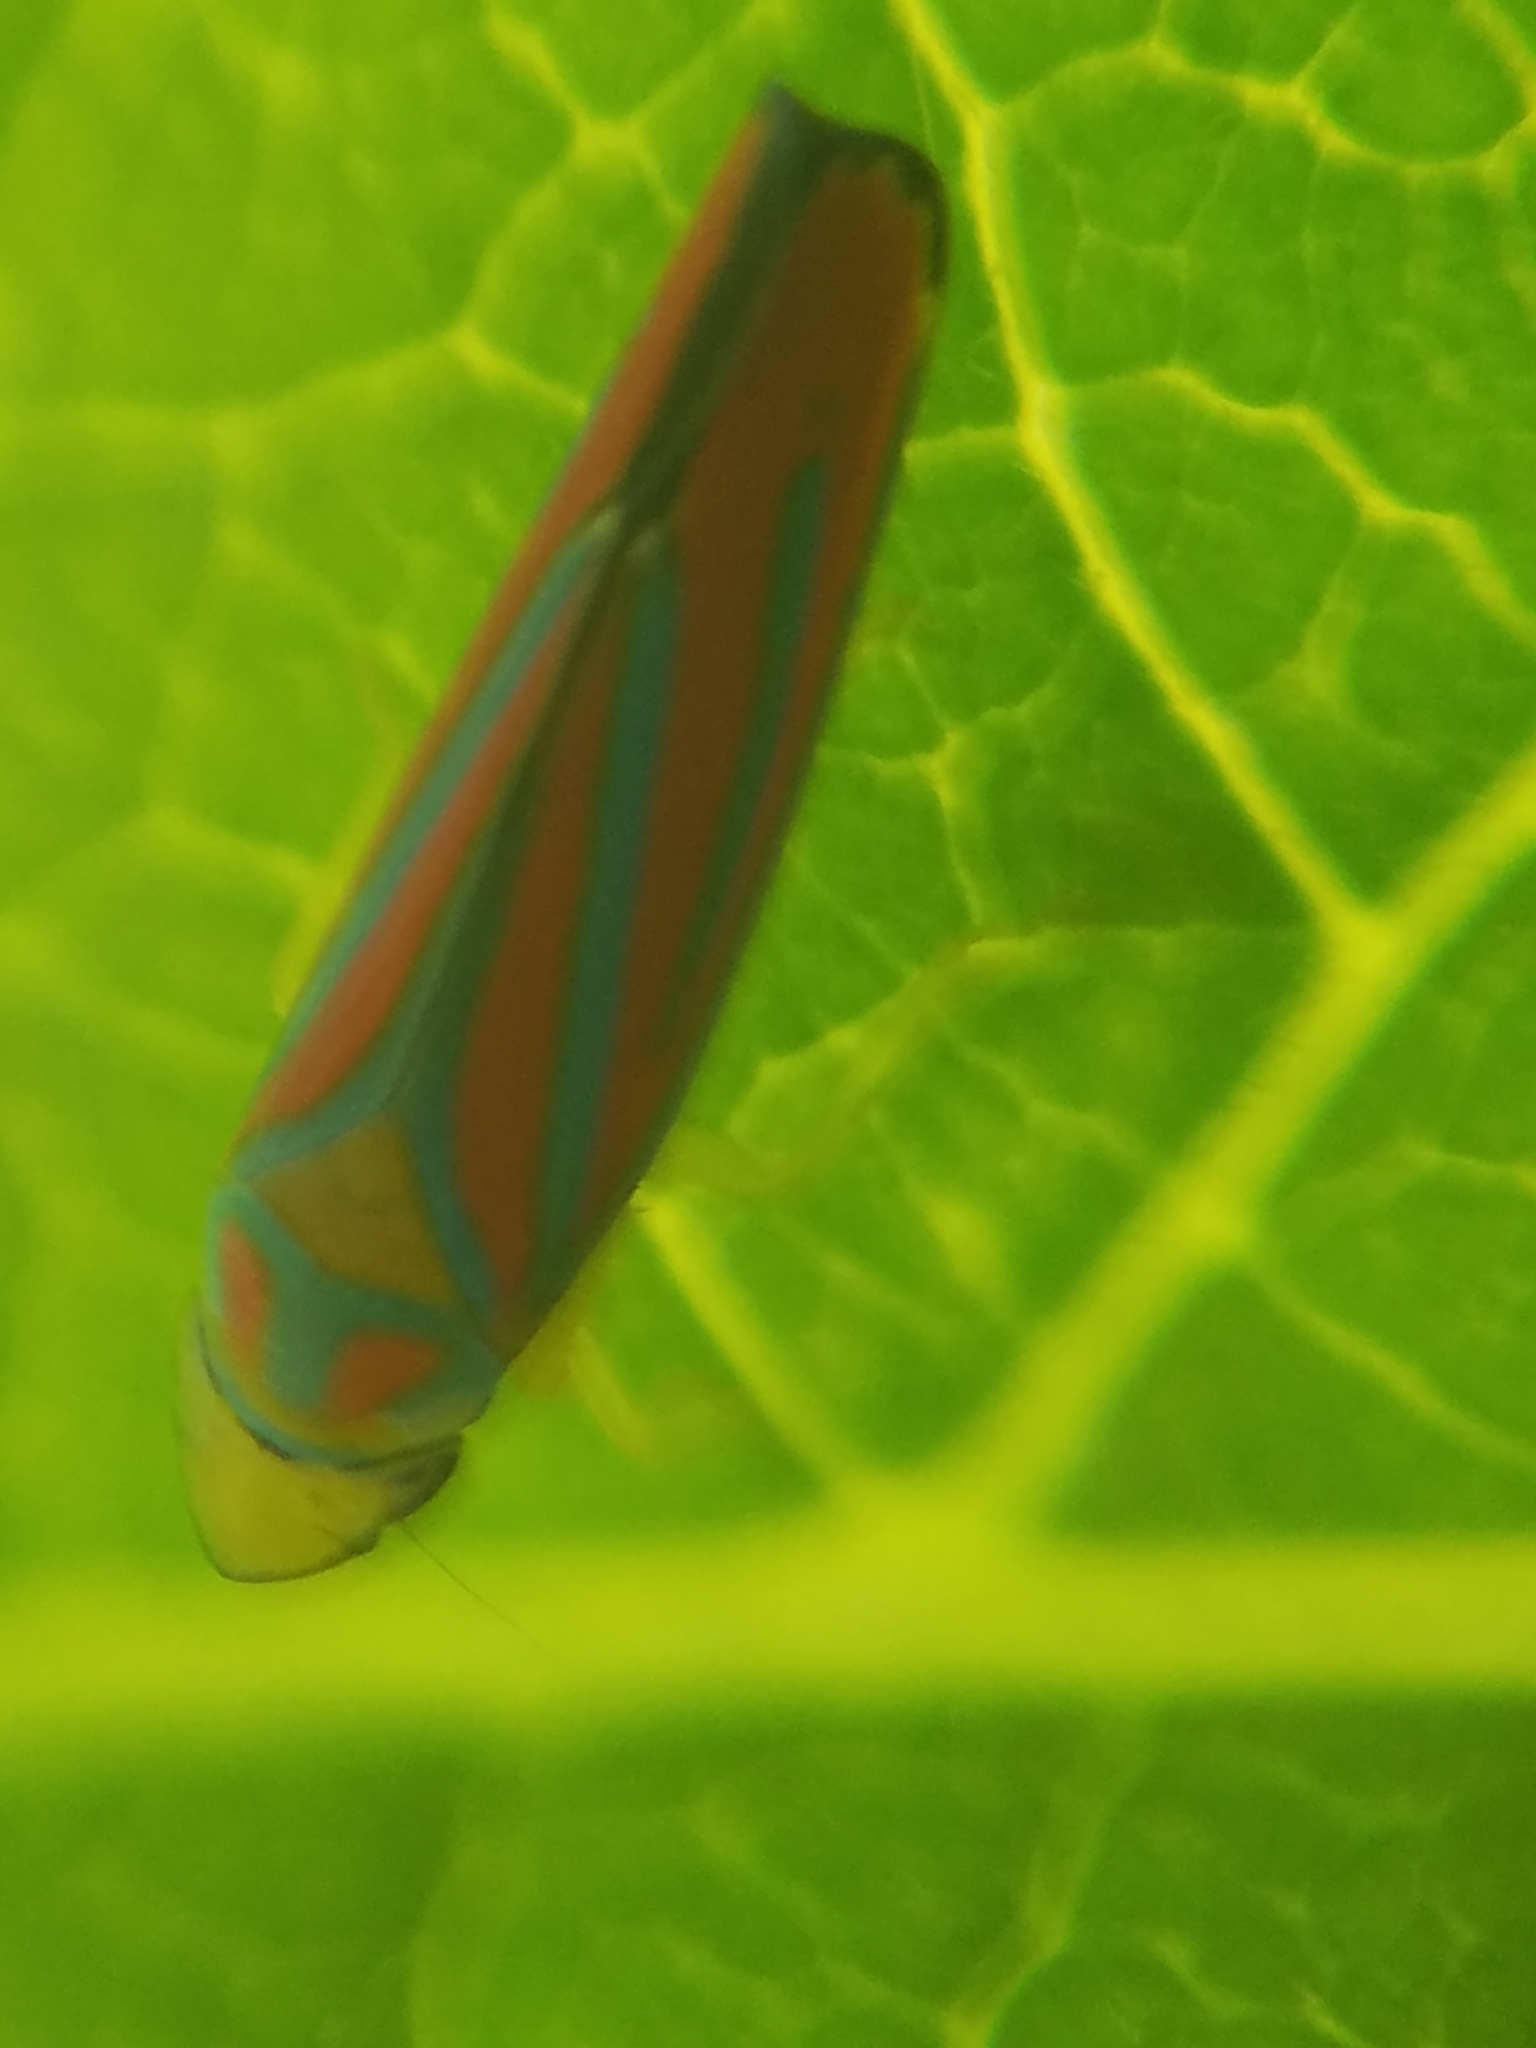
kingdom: Animalia
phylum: Arthropoda
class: Insecta
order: Hemiptera
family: Cicadellidae
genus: Graphocephala
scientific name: Graphocephala coccinea
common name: Candy-striped leafhopper
